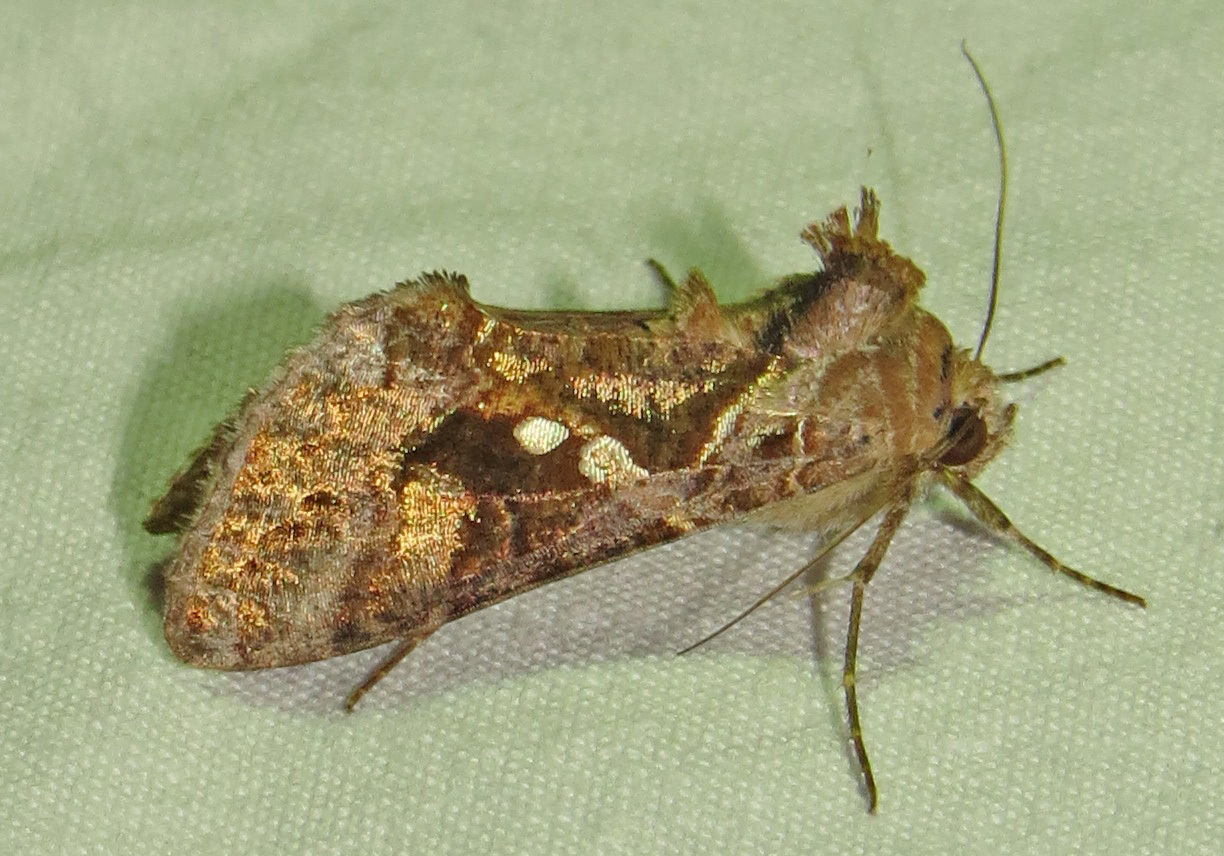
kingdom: Animalia
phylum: Arthropoda
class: Insecta
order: Lepidoptera
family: Noctuidae
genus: Chrysodeixis
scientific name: Chrysodeixis includens
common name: Cutworm moth
